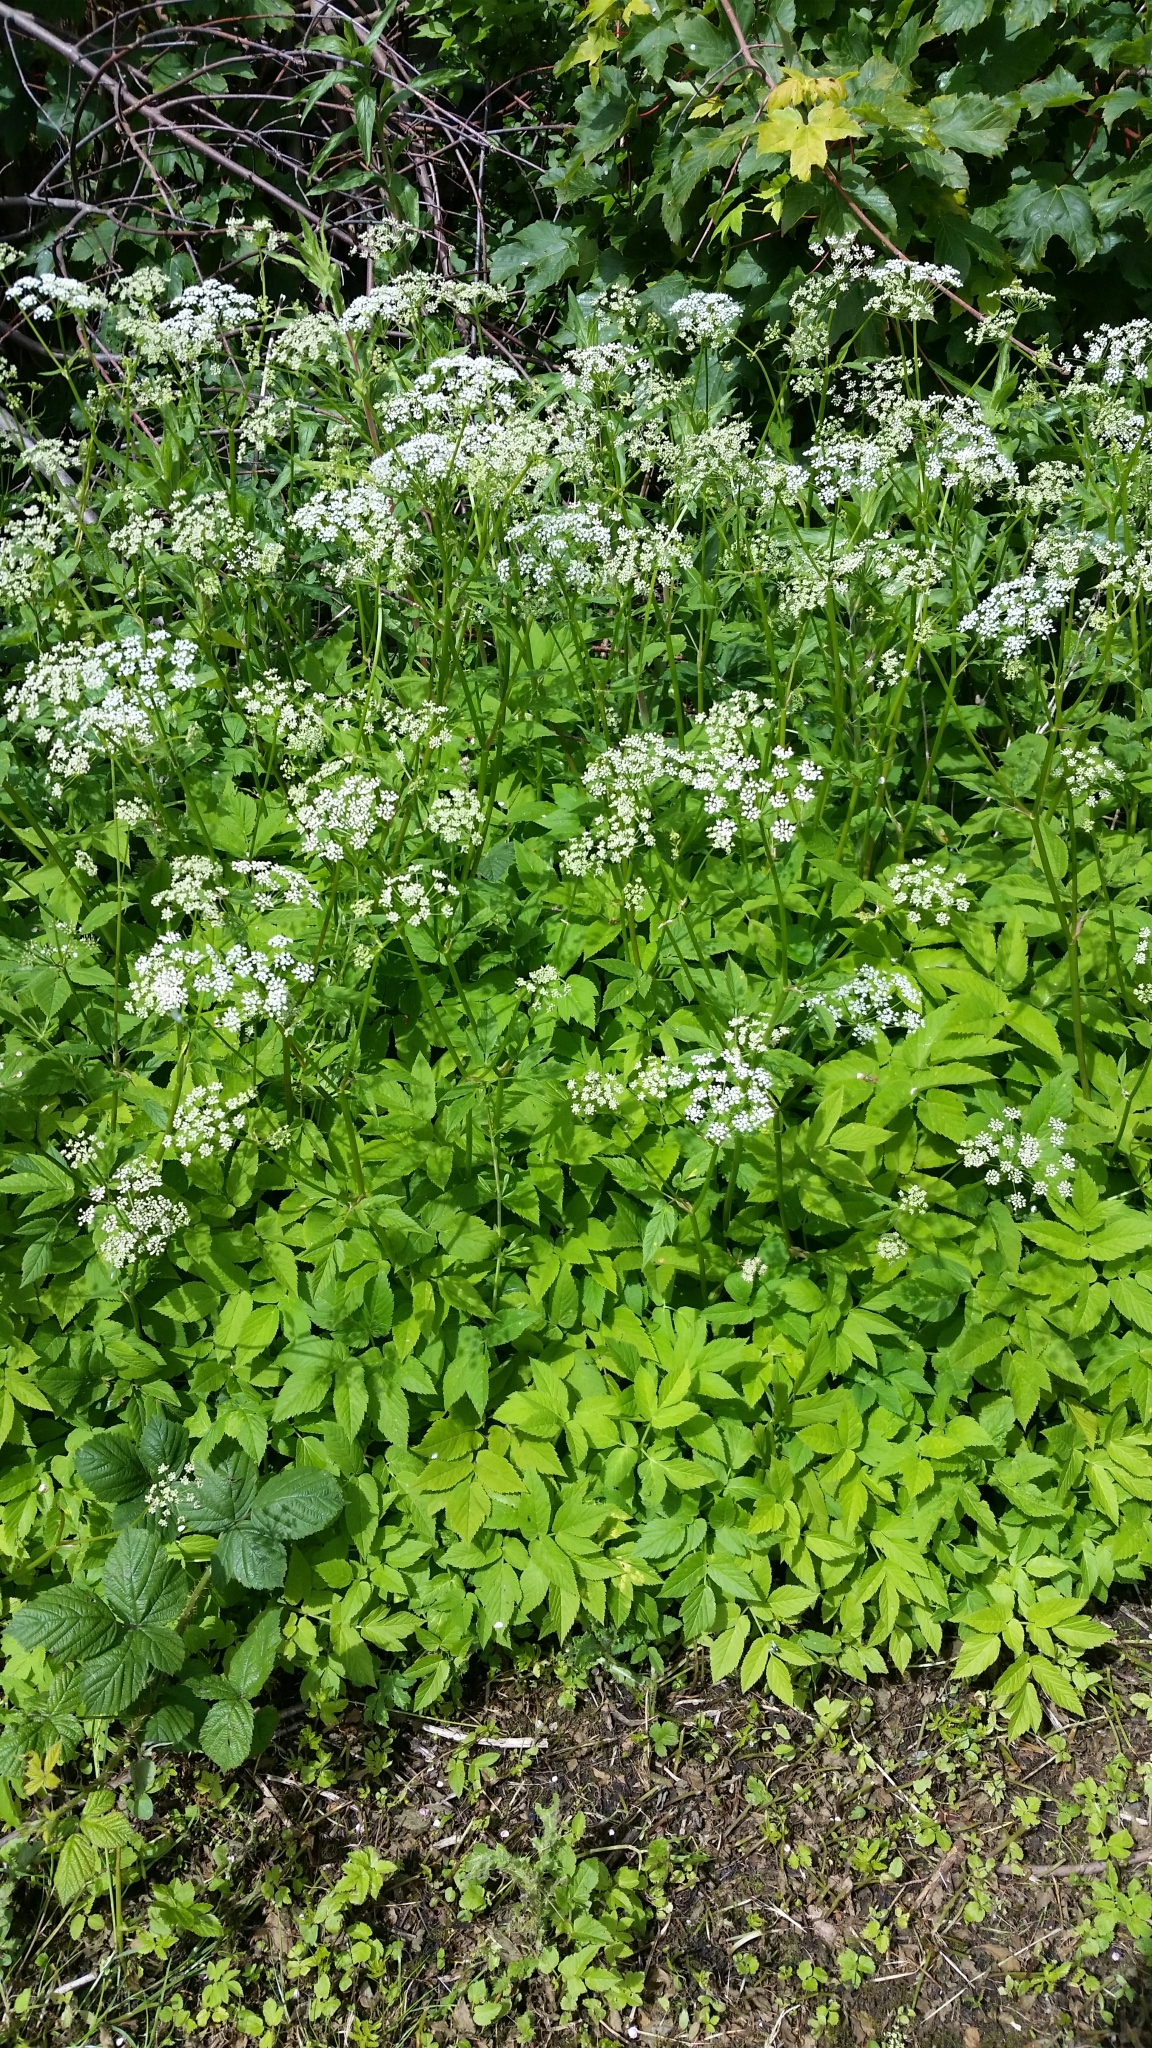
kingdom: Plantae
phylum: Tracheophyta
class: Magnoliopsida
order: Apiales
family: Apiaceae
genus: Aegopodium
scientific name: Aegopodium podagraria
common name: Ground-elder
